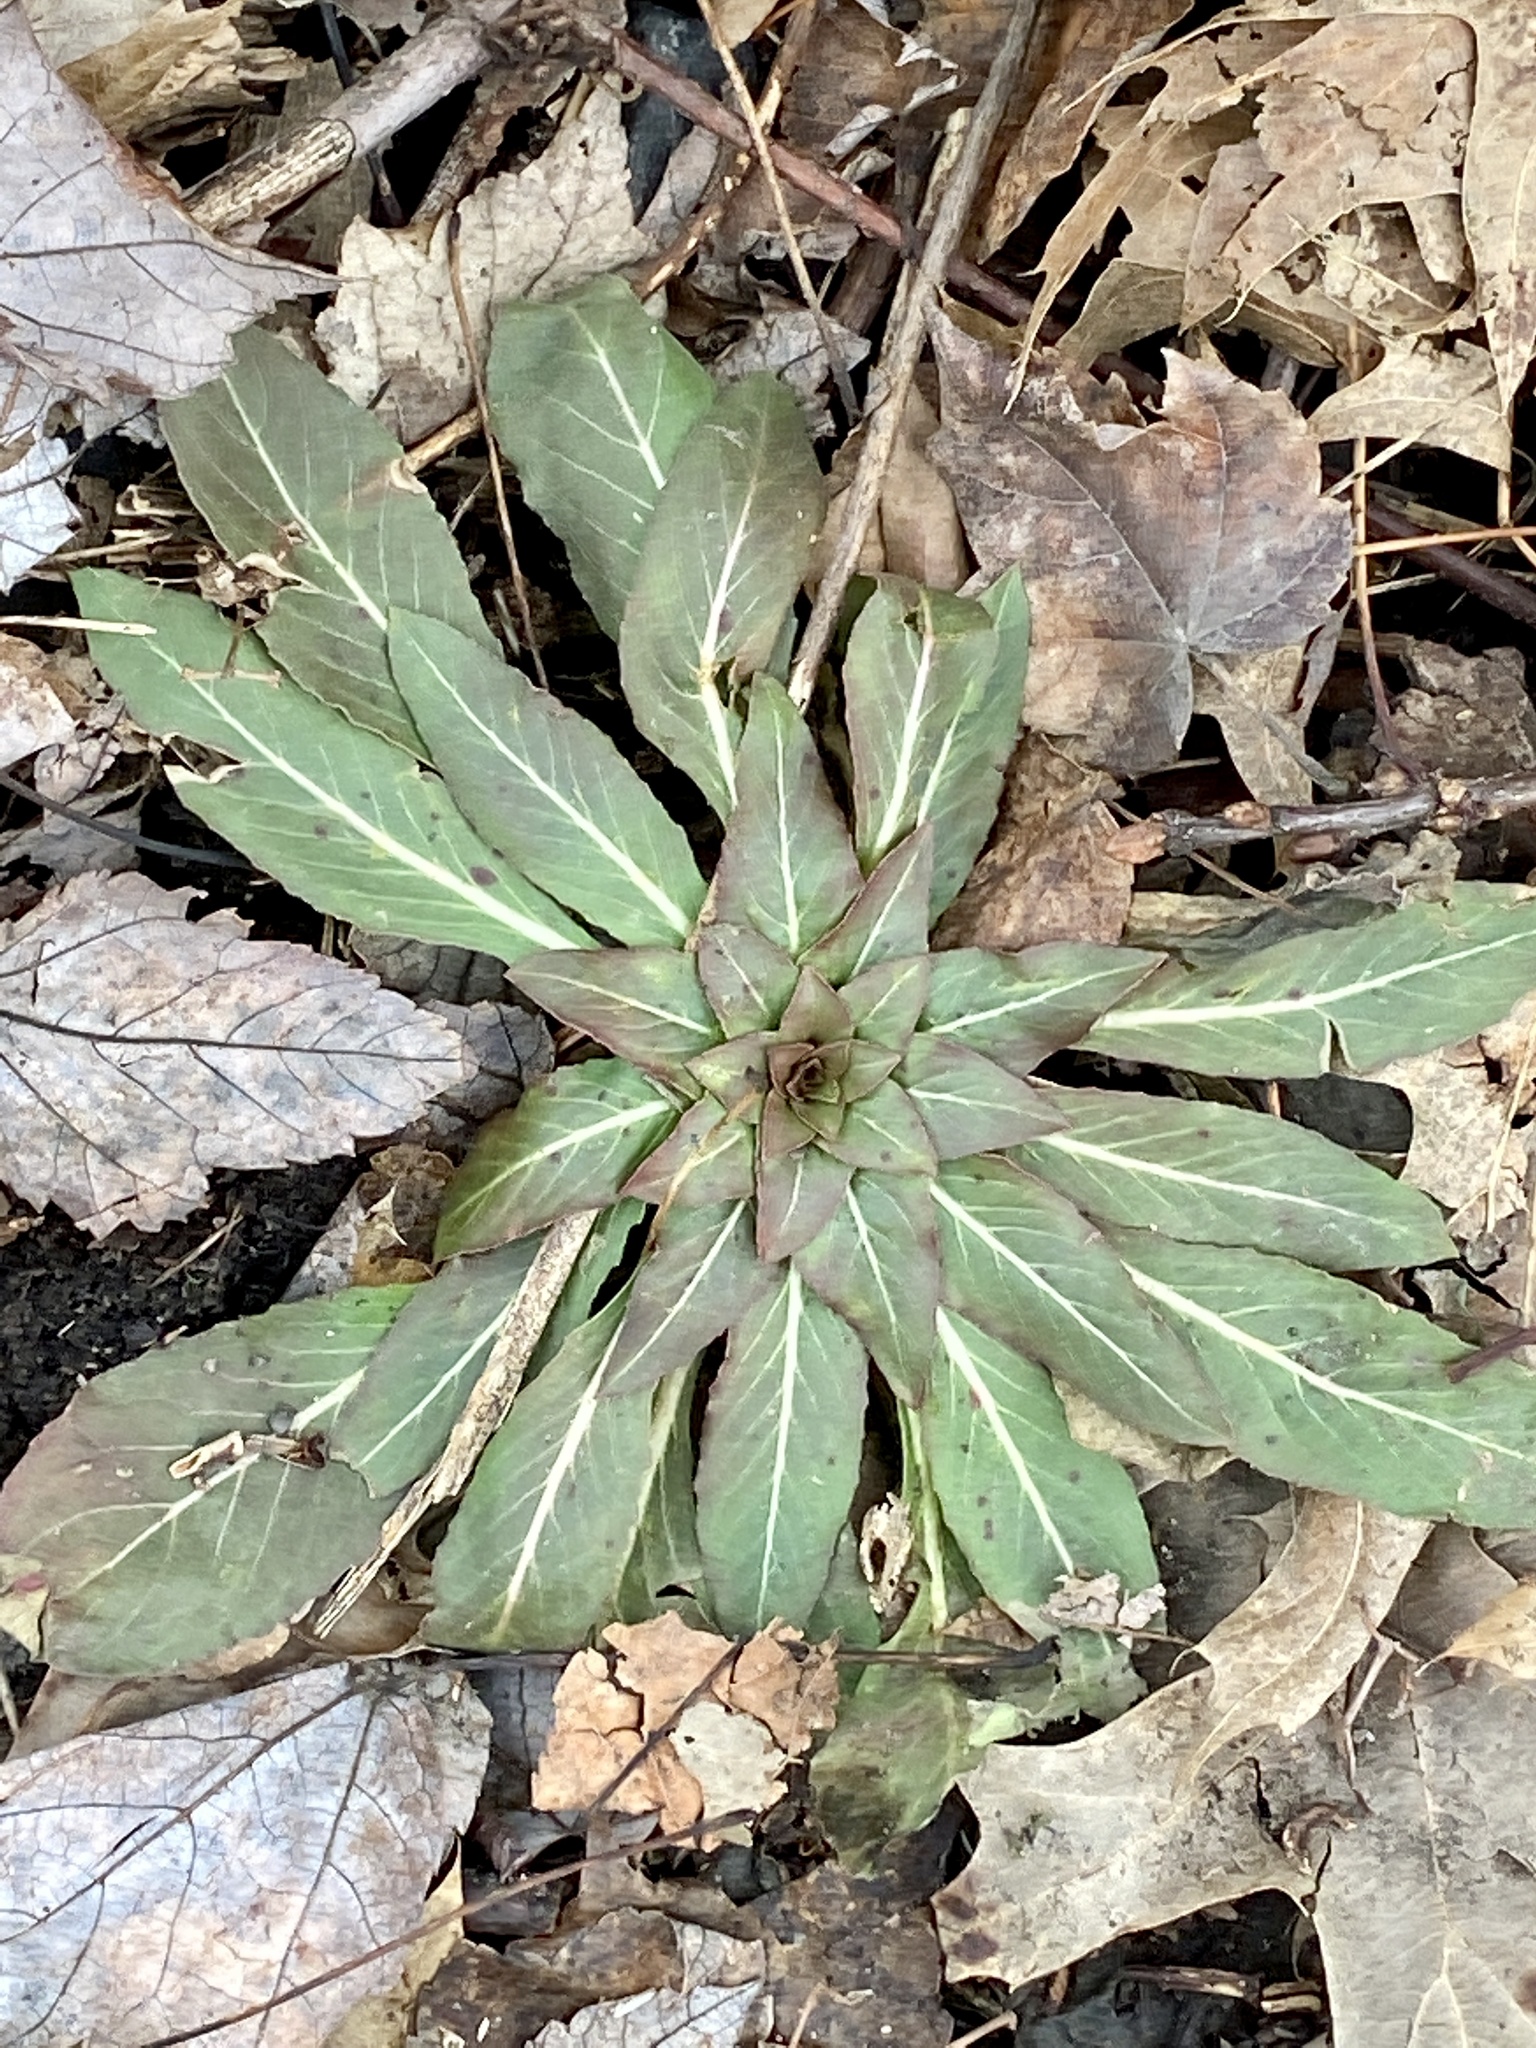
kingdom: Plantae
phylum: Tracheophyta
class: Magnoliopsida
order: Myrtales
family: Onagraceae
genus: Oenothera
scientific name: Oenothera biennis
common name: Common evening-primrose
